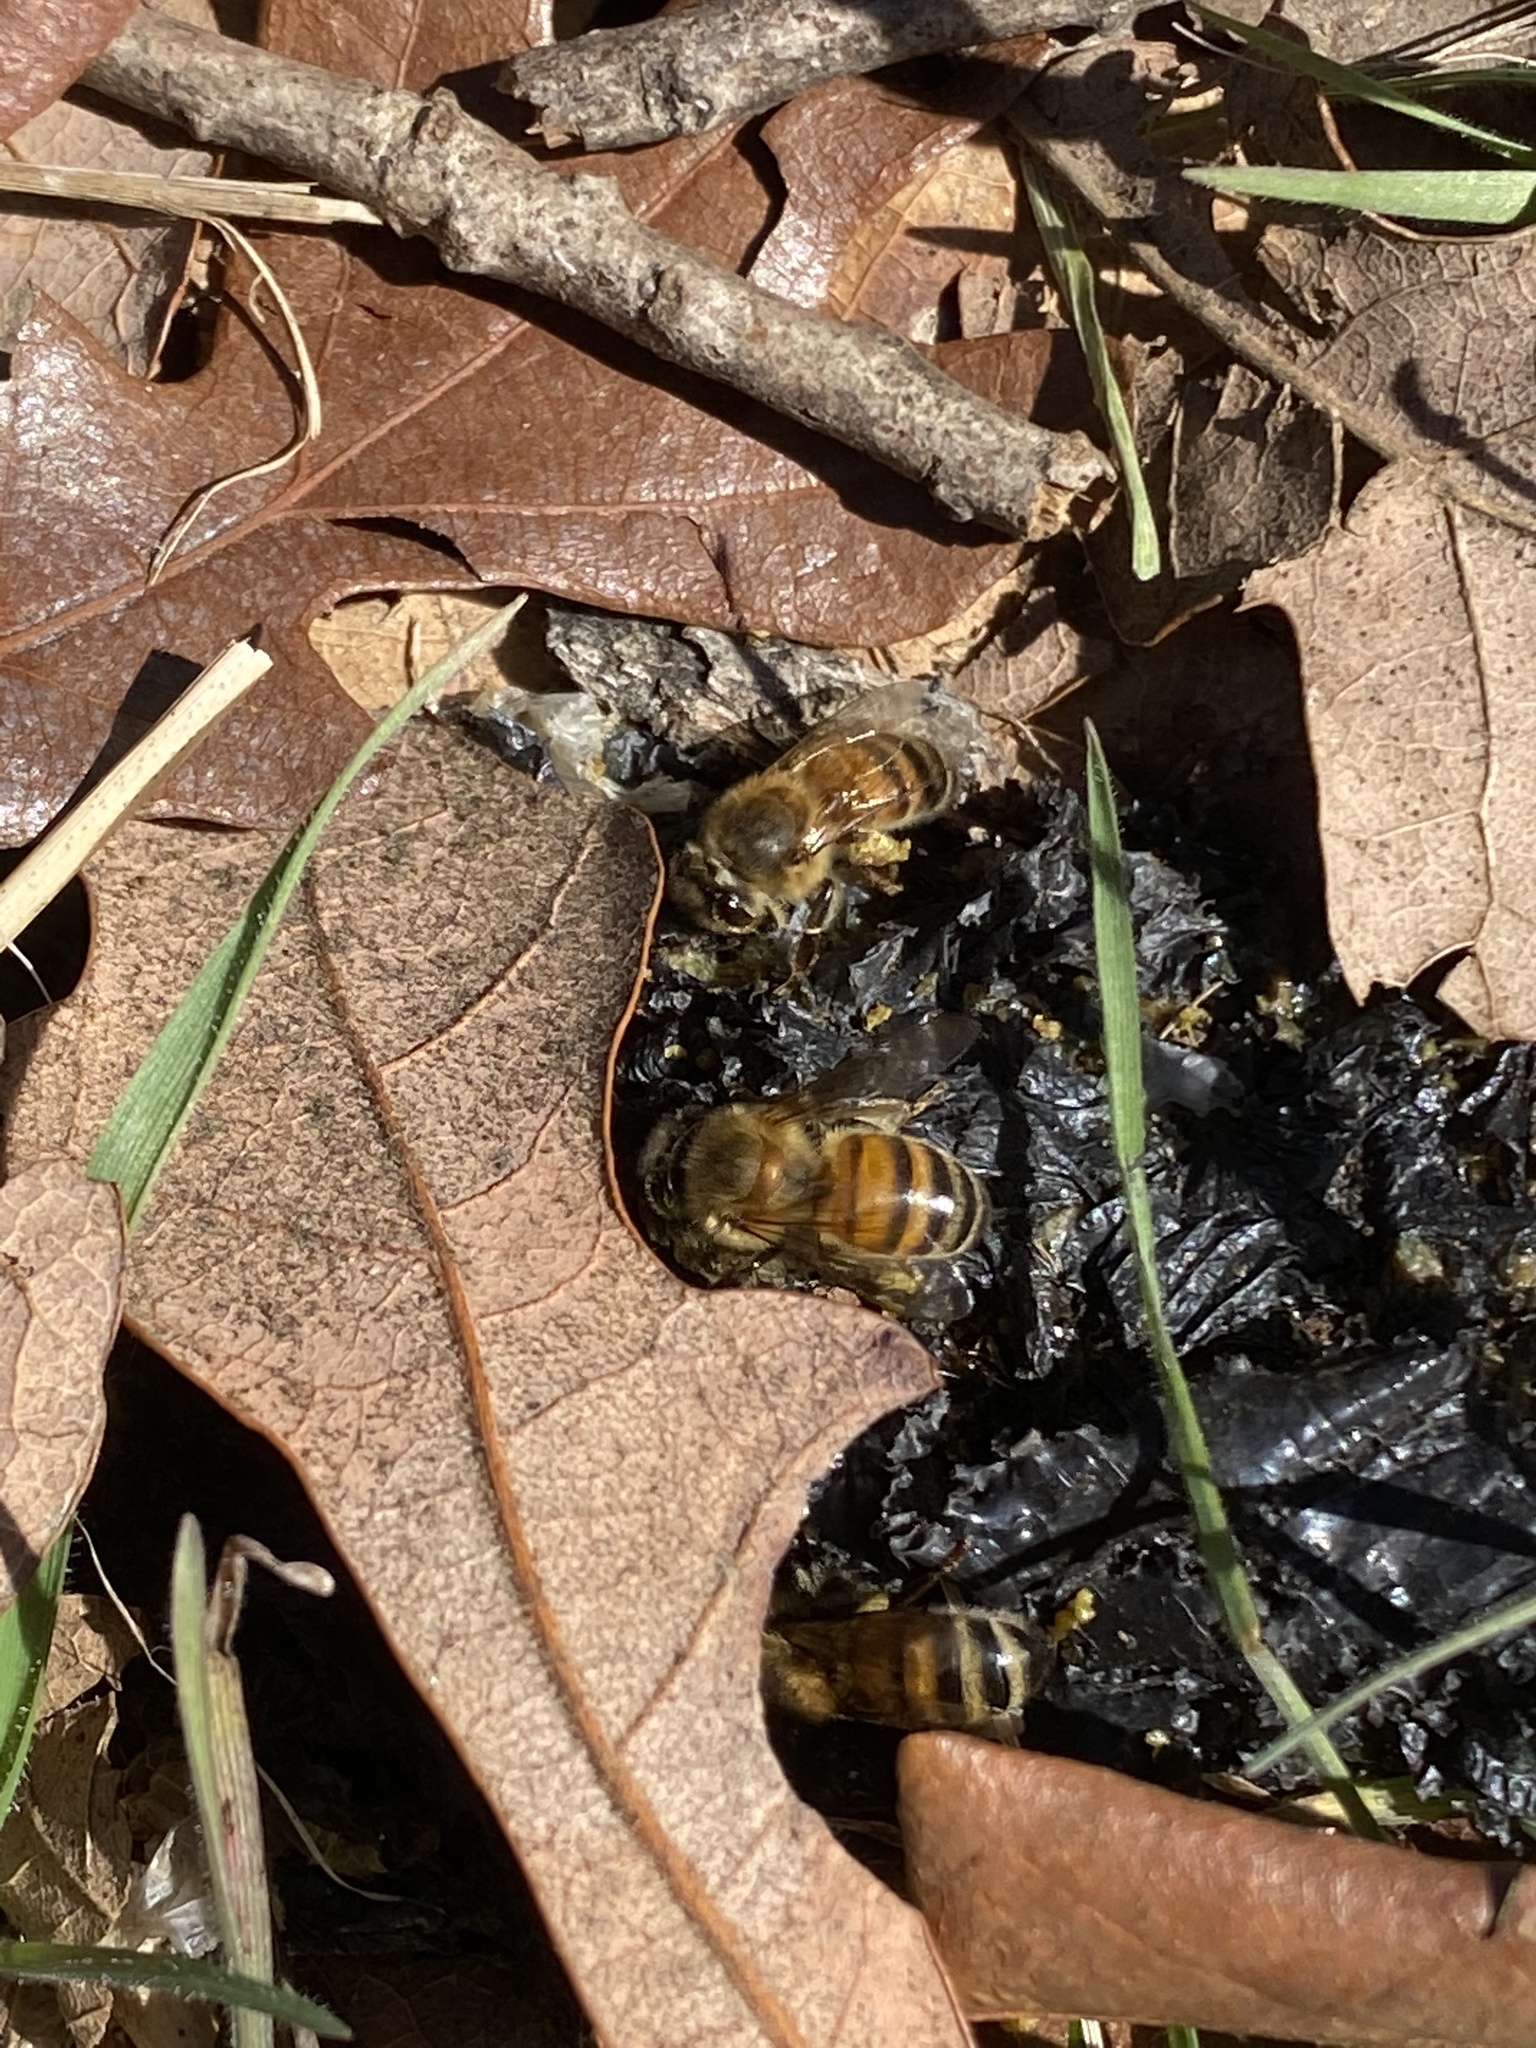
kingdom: Animalia
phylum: Arthropoda
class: Insecta
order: Hymenoptera
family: Apidae
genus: Apis
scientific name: Apis mellifera
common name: Honey bee
